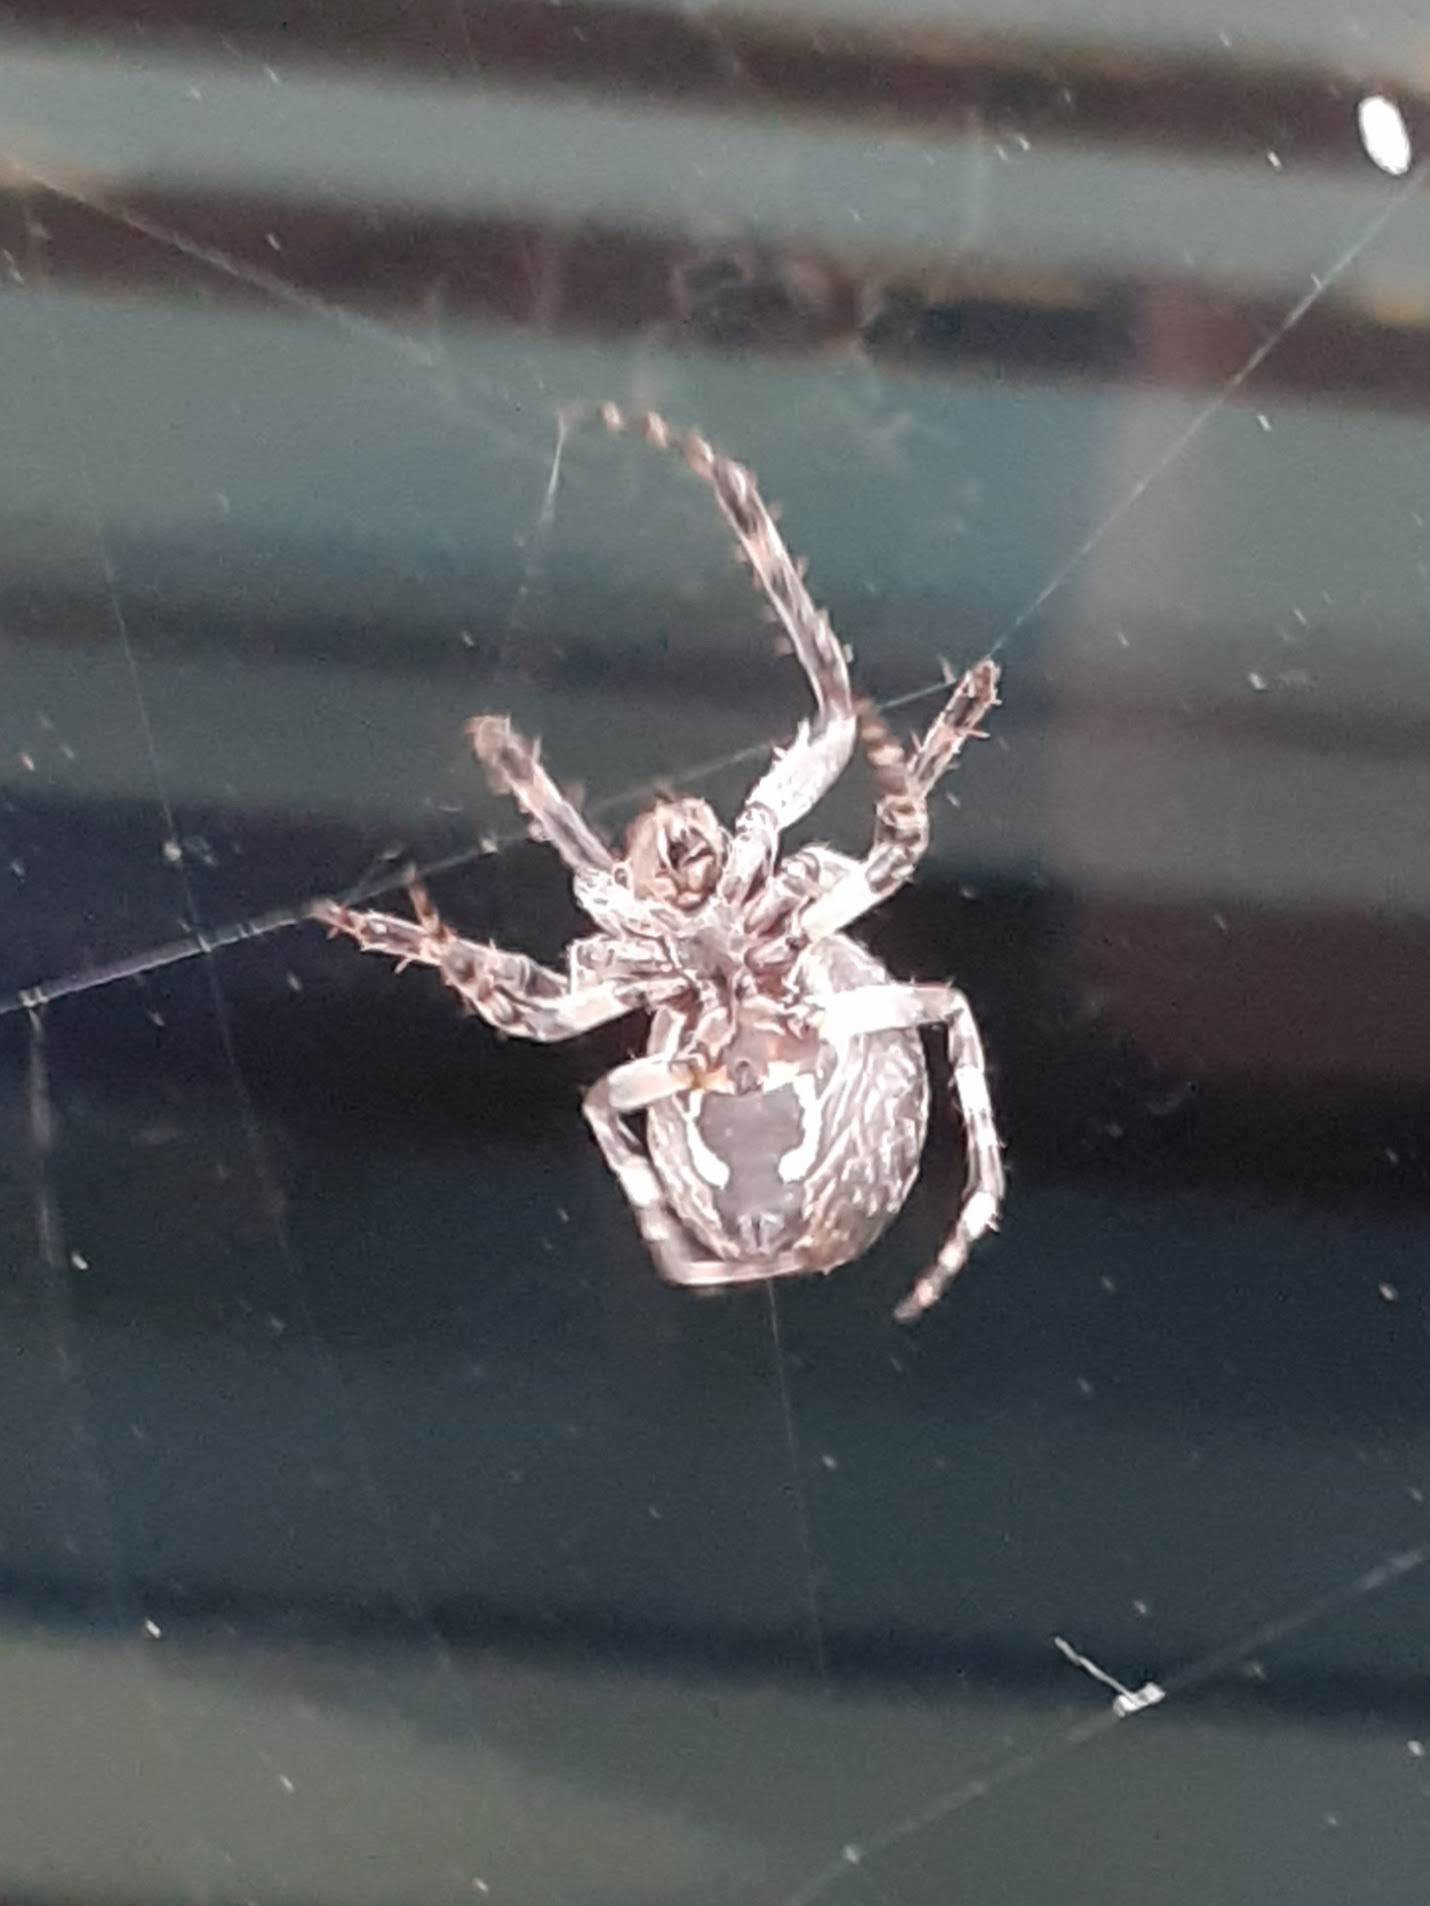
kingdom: Animalia
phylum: Arthropoda
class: Arachnida
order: Araneae
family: Araneidae
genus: Larinioides
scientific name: Larinioides sclopetarius
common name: Bridge orbweaver
